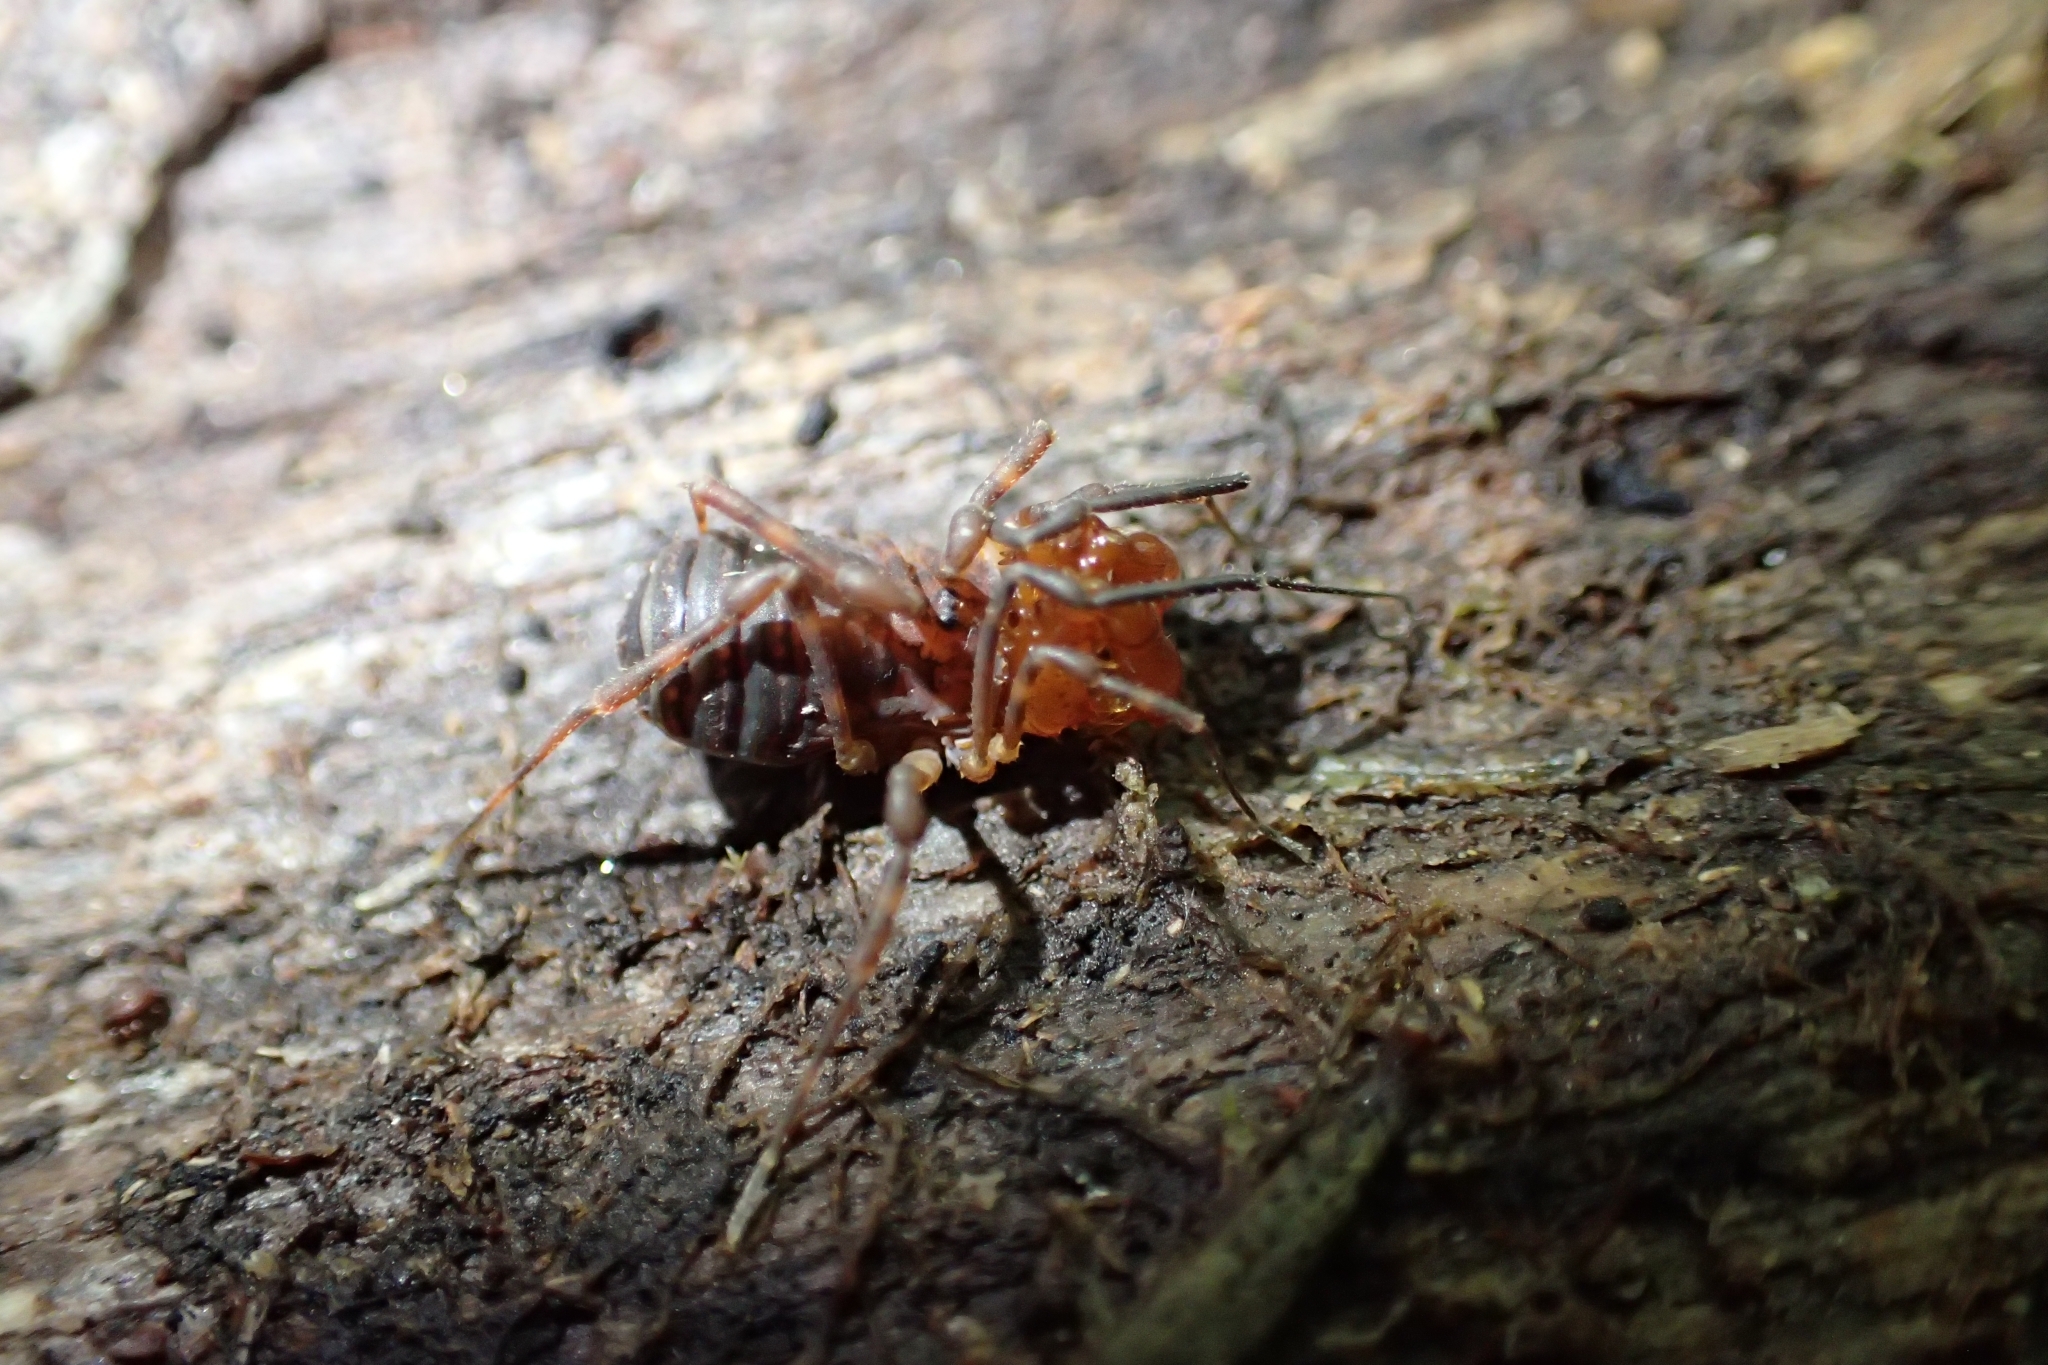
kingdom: Animalia
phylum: Arthropoda
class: Arachnida
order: Opiliones
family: Triaenonychidae
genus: Sorensenella
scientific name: Sorensenella prehensor
